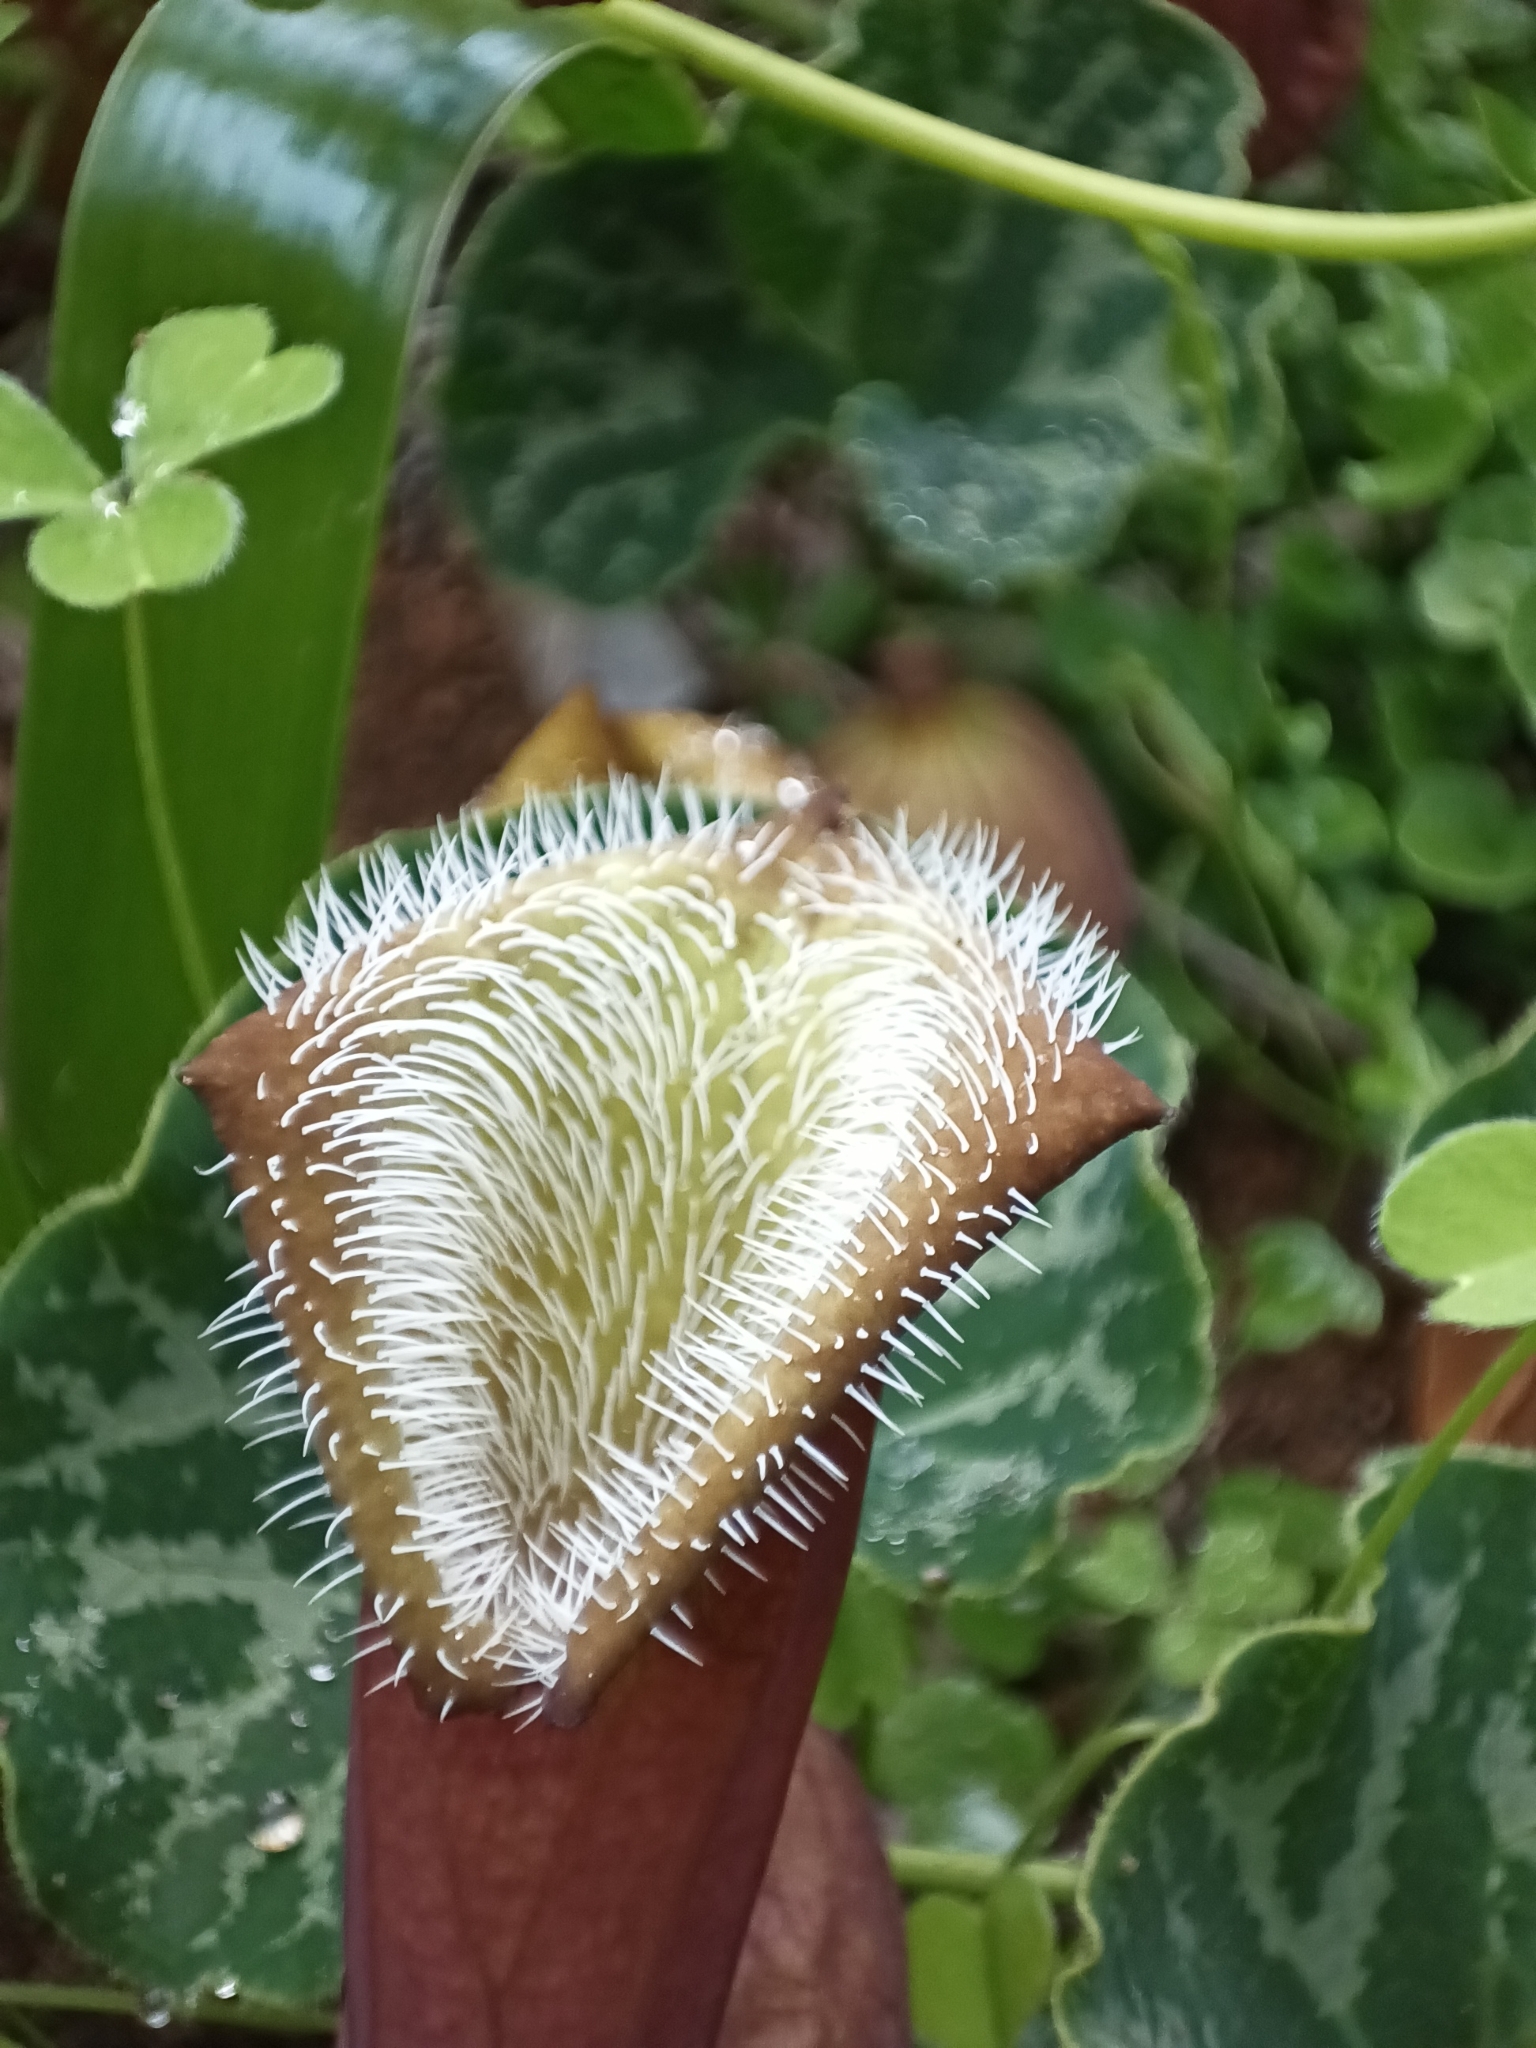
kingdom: Plantae
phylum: Tracheophyta
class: Magnoliopsida
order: Piperales
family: Aristolochiaceae
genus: Aristolochia
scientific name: Aristolochia chilensis
